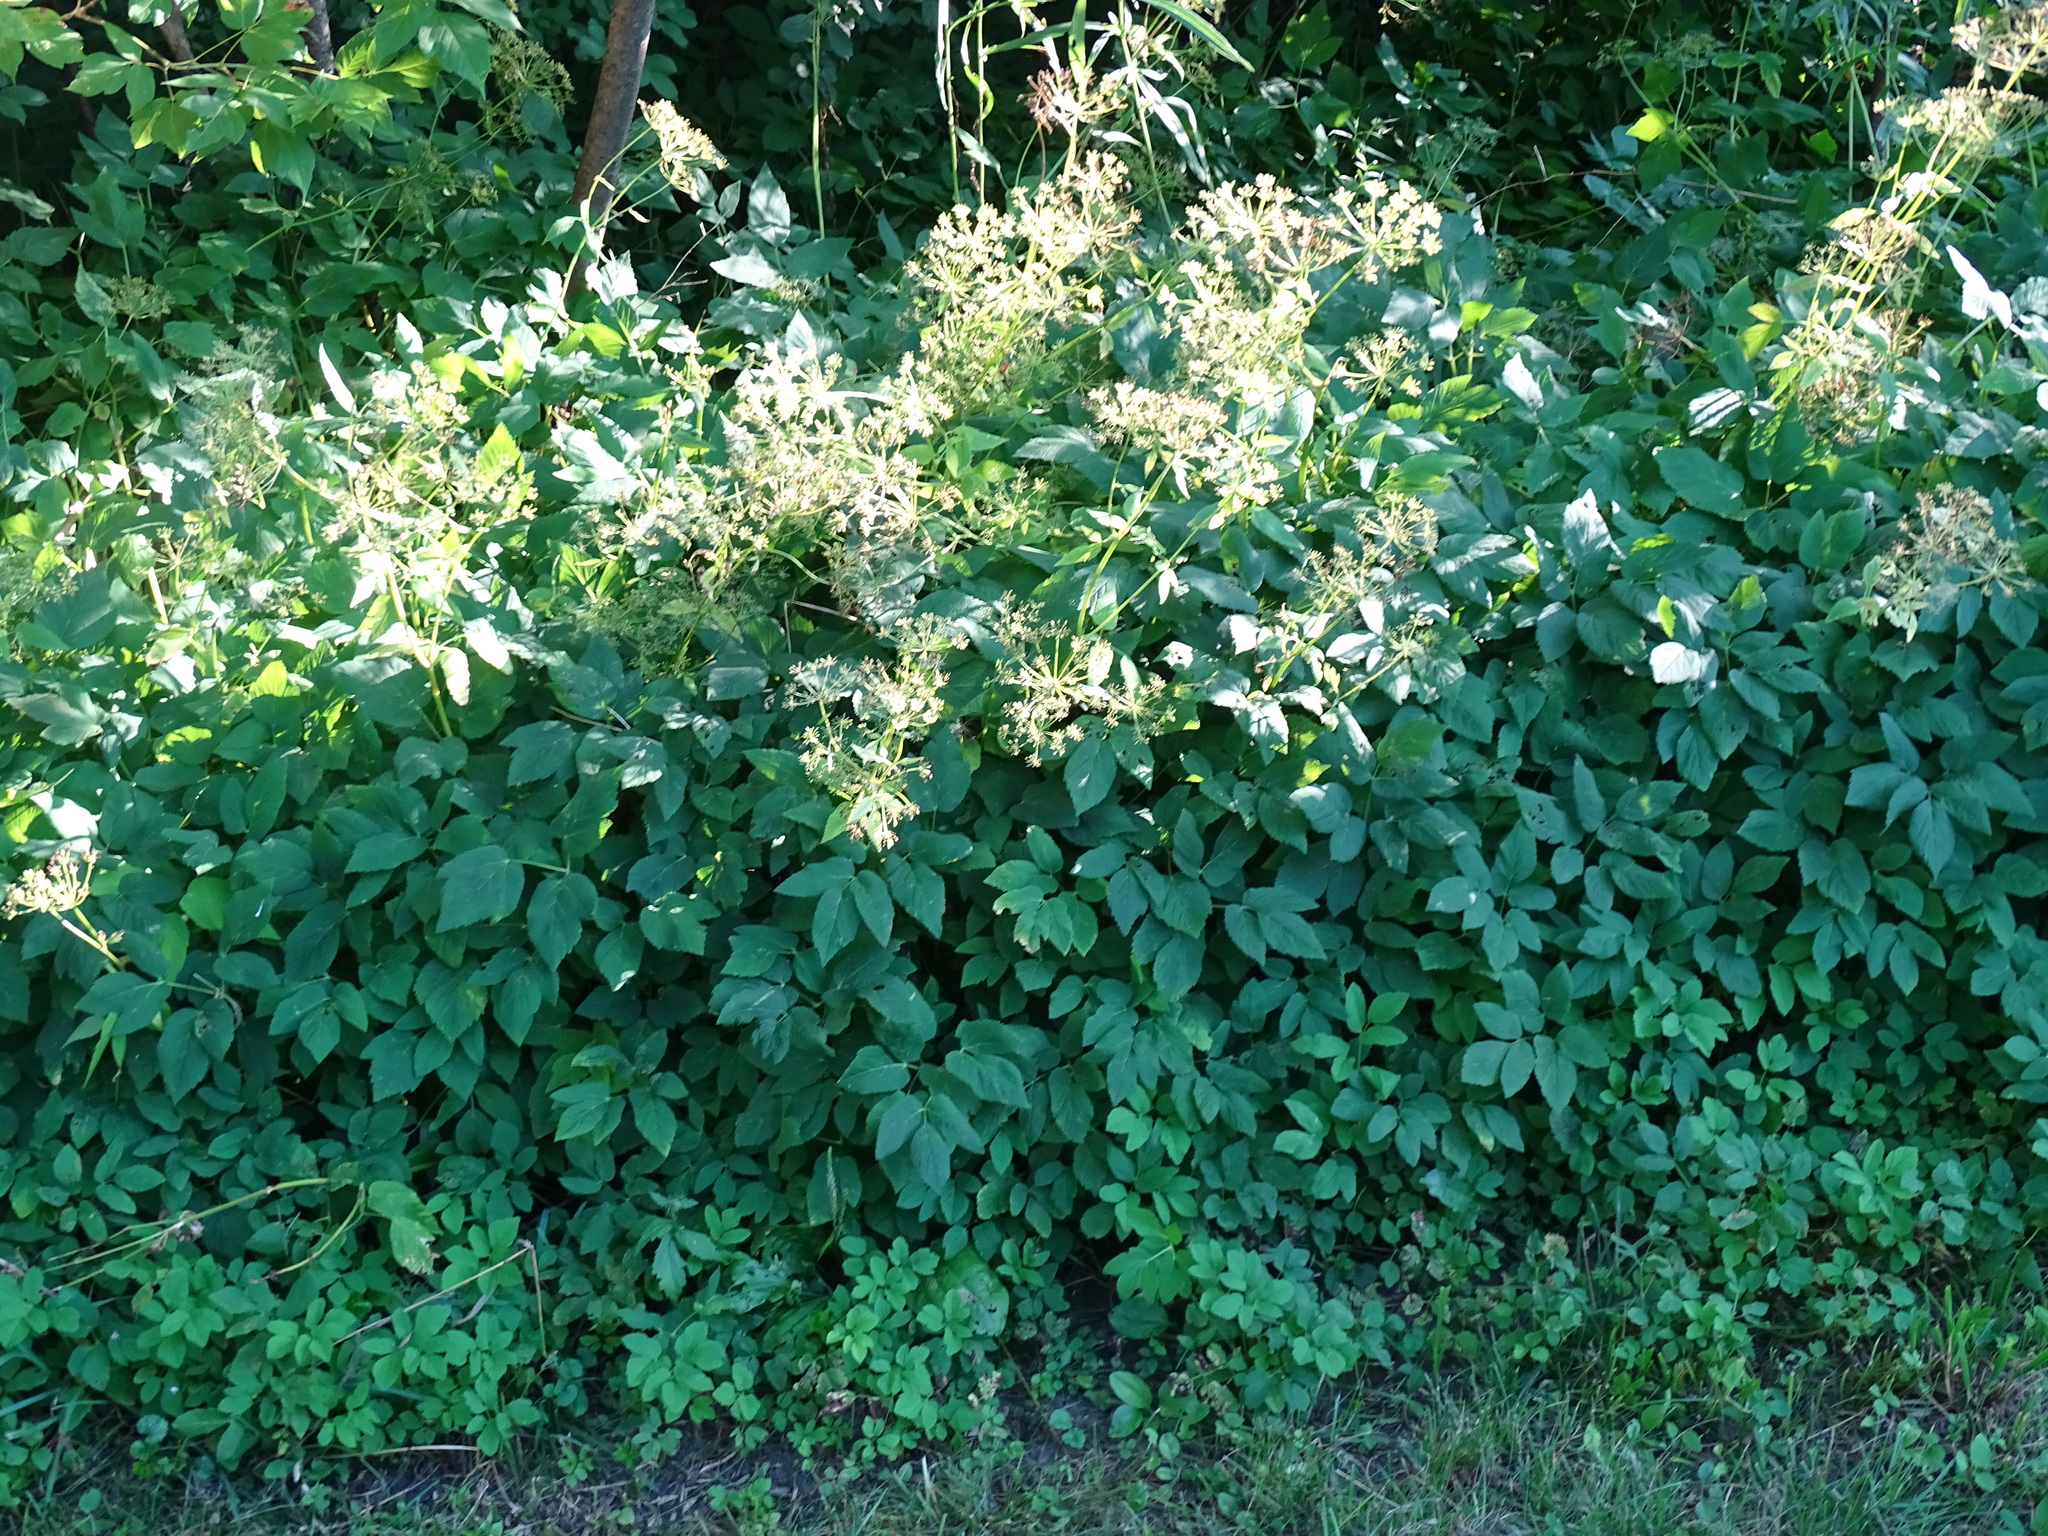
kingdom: Plantae
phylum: Tracheophyta
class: Magnoliopsida
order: Apiales
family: Apiaceae
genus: Aegopodium
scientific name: Aegopodium podagraria
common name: Ground-elder
